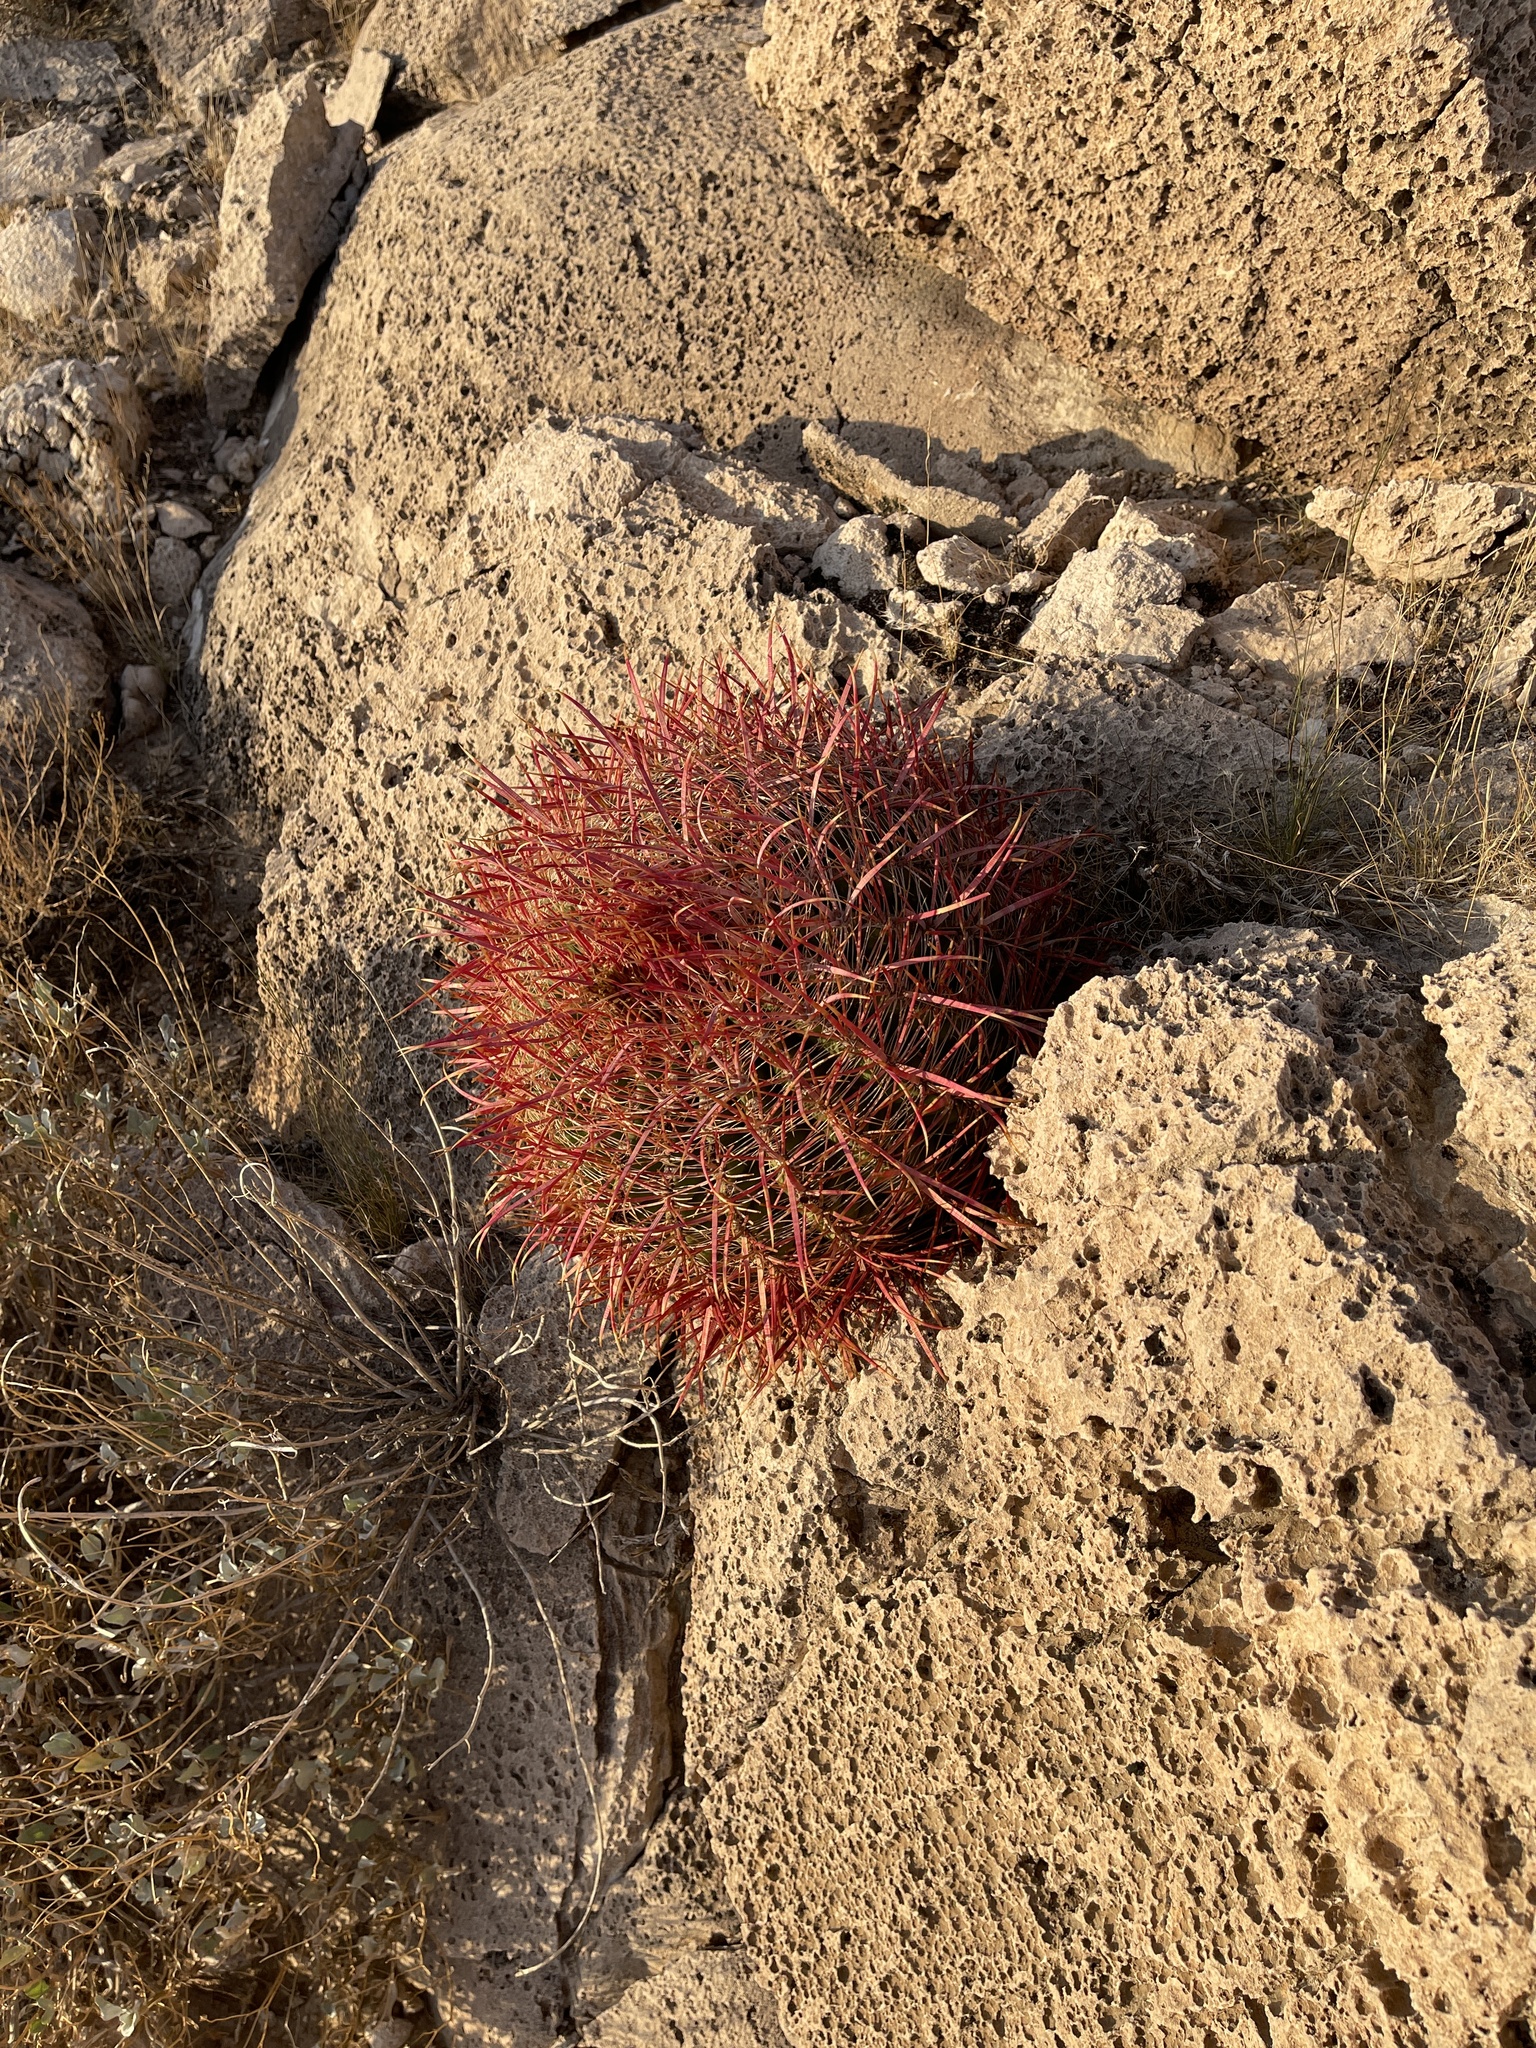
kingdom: Plantae
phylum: Tracheophyta
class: Magnoliopsida
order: Caryophyllales
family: Cactaceae
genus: Ferocactus
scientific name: Ferocactus cylindraceus
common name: California barrel cactus
